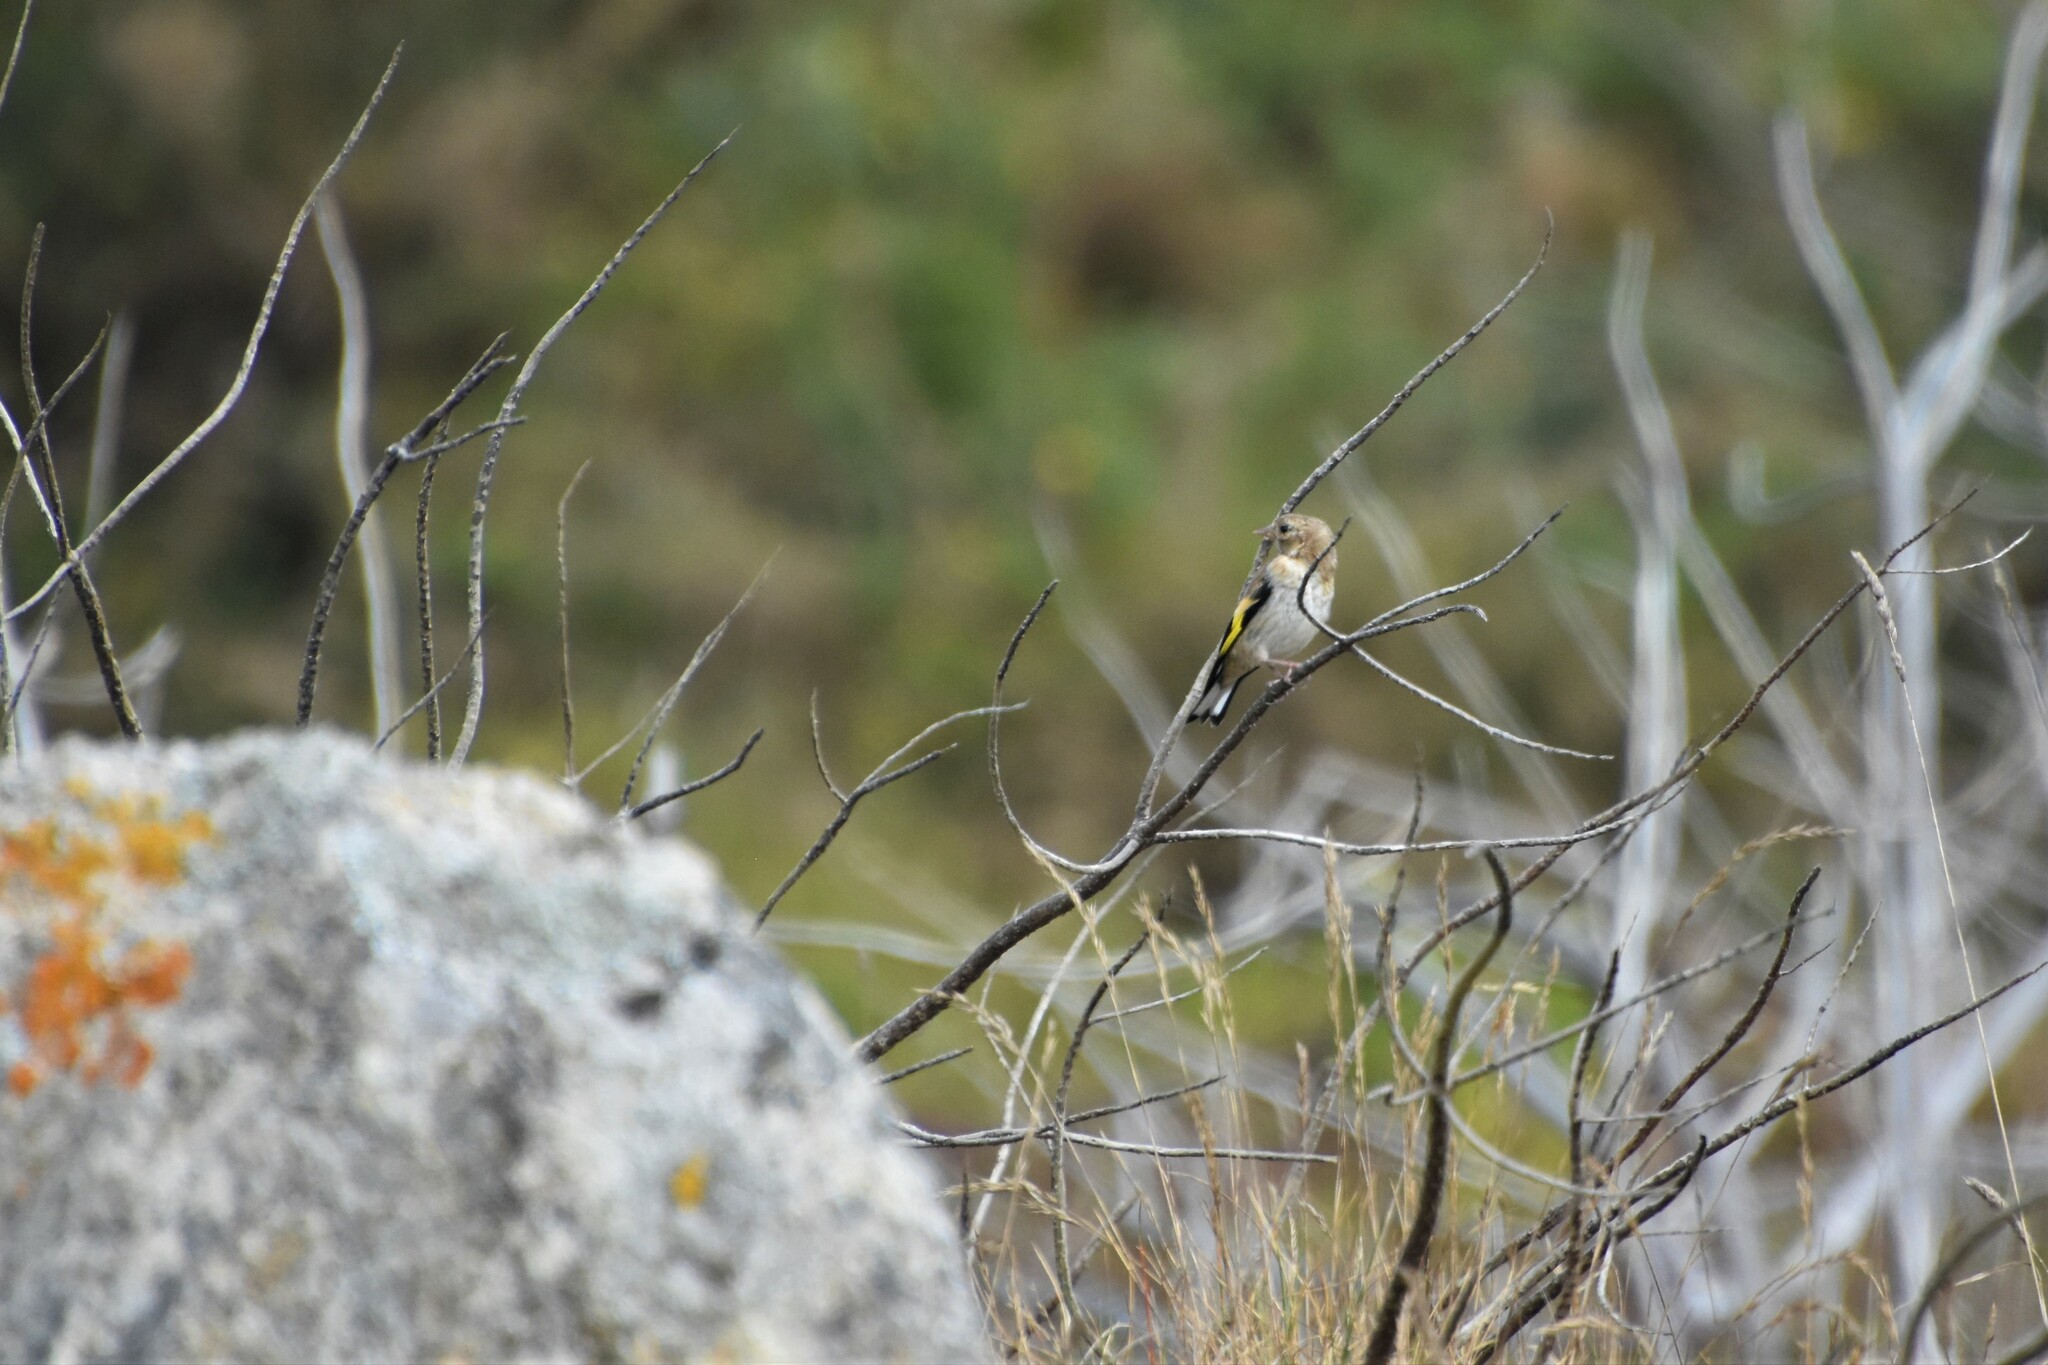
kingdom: Animalia
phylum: Chordata
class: Aves
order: Passeriformes
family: Fringillidae
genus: Carduelis
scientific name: Carduelis carduelis
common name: European goldfinch
